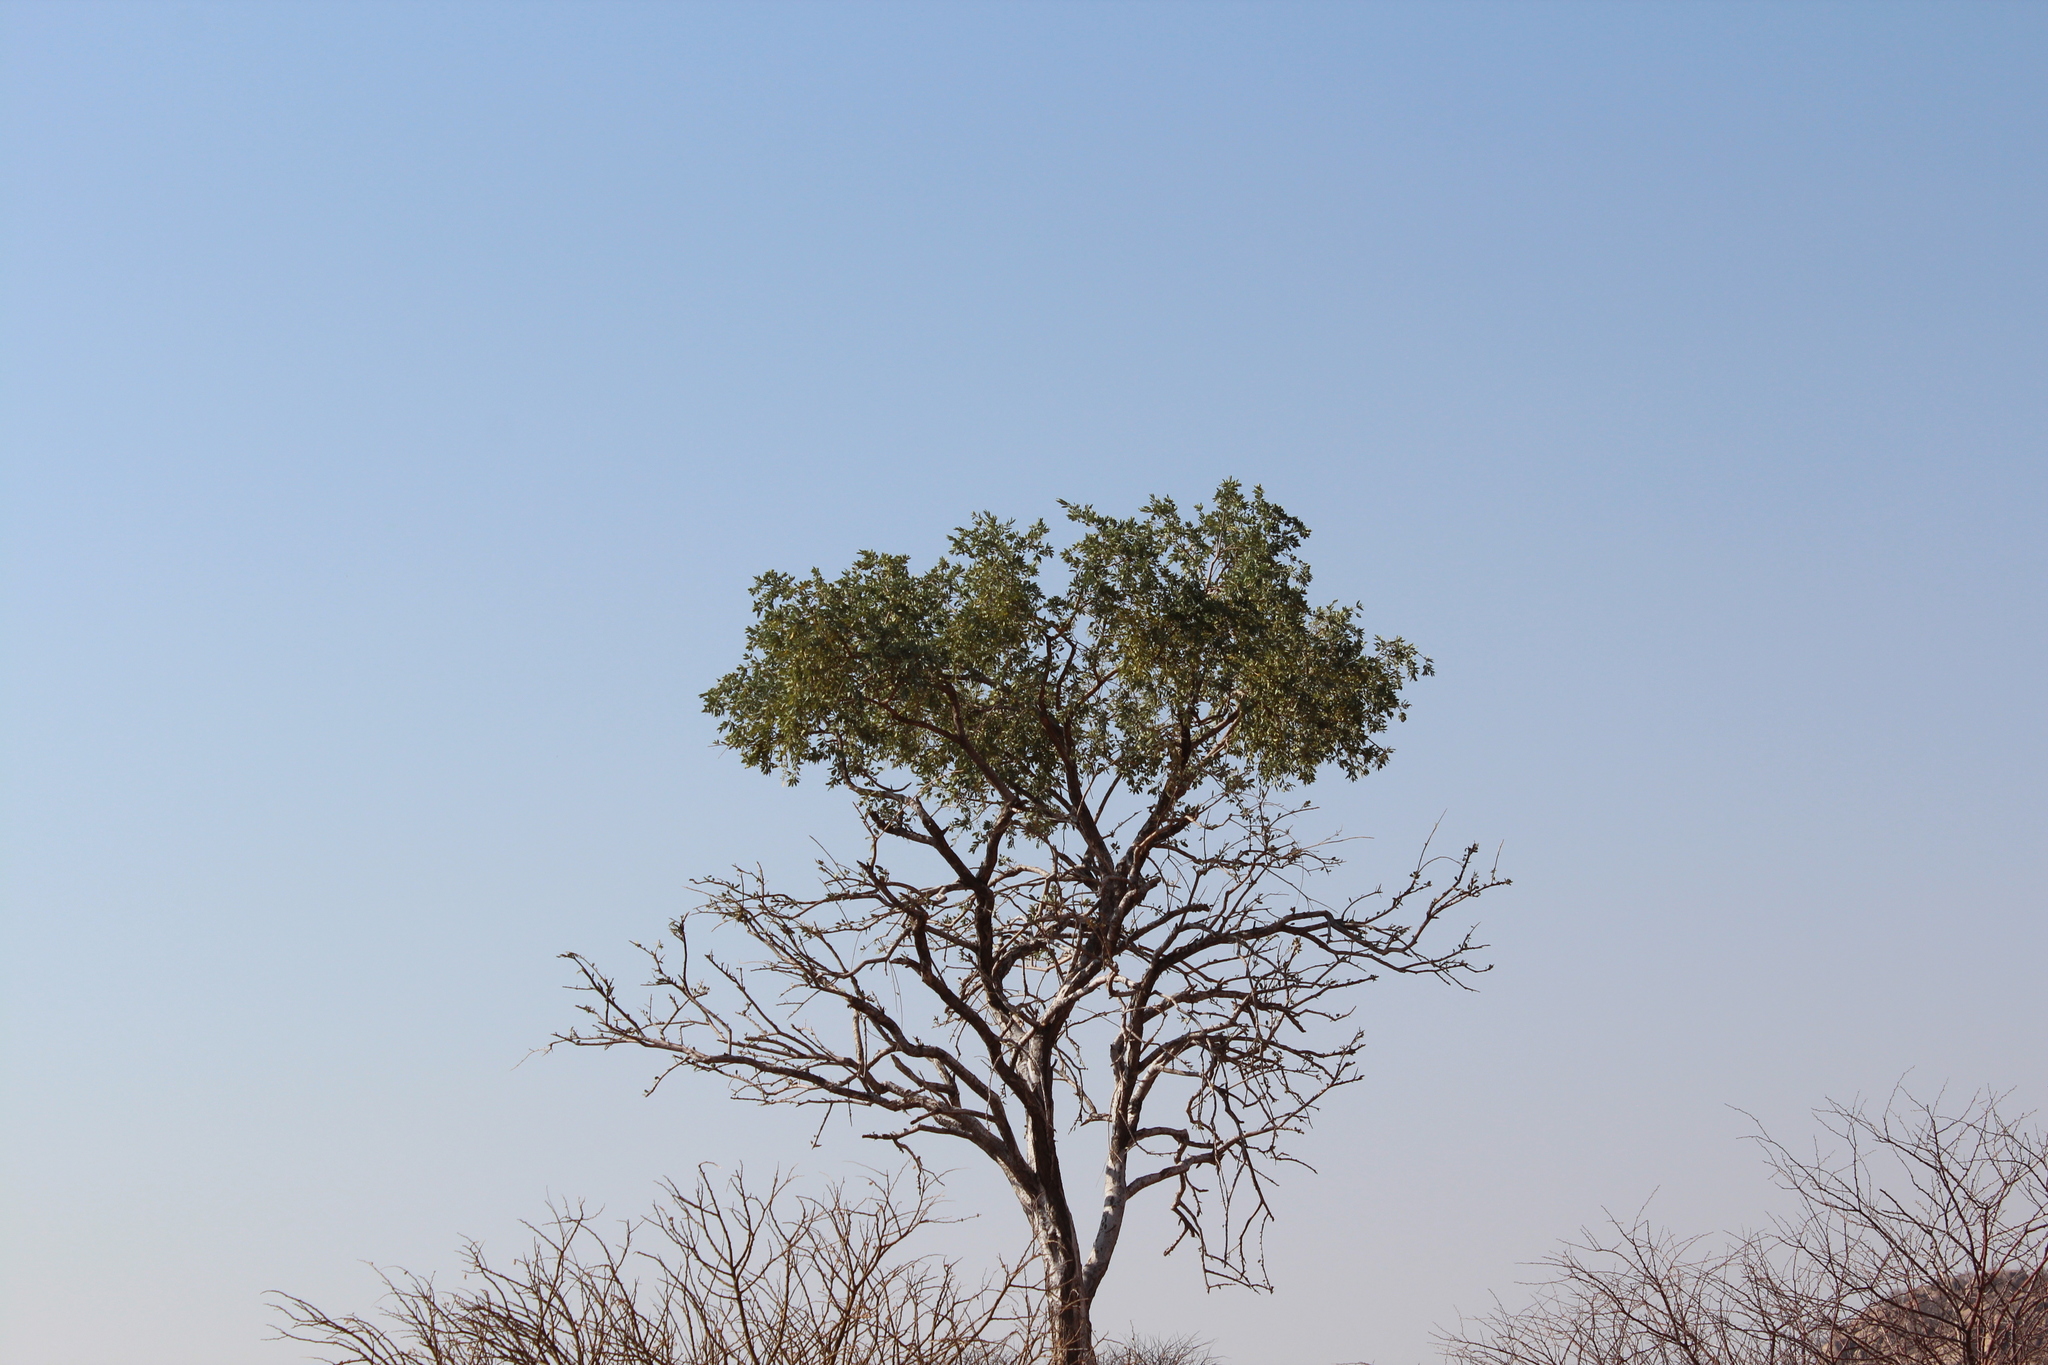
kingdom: Plantae
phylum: Tracheophyta
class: Magnoliopsida
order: Brassicales
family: Capparaceae
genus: Boscia
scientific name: Boscia albitrunca
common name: Caper bush
